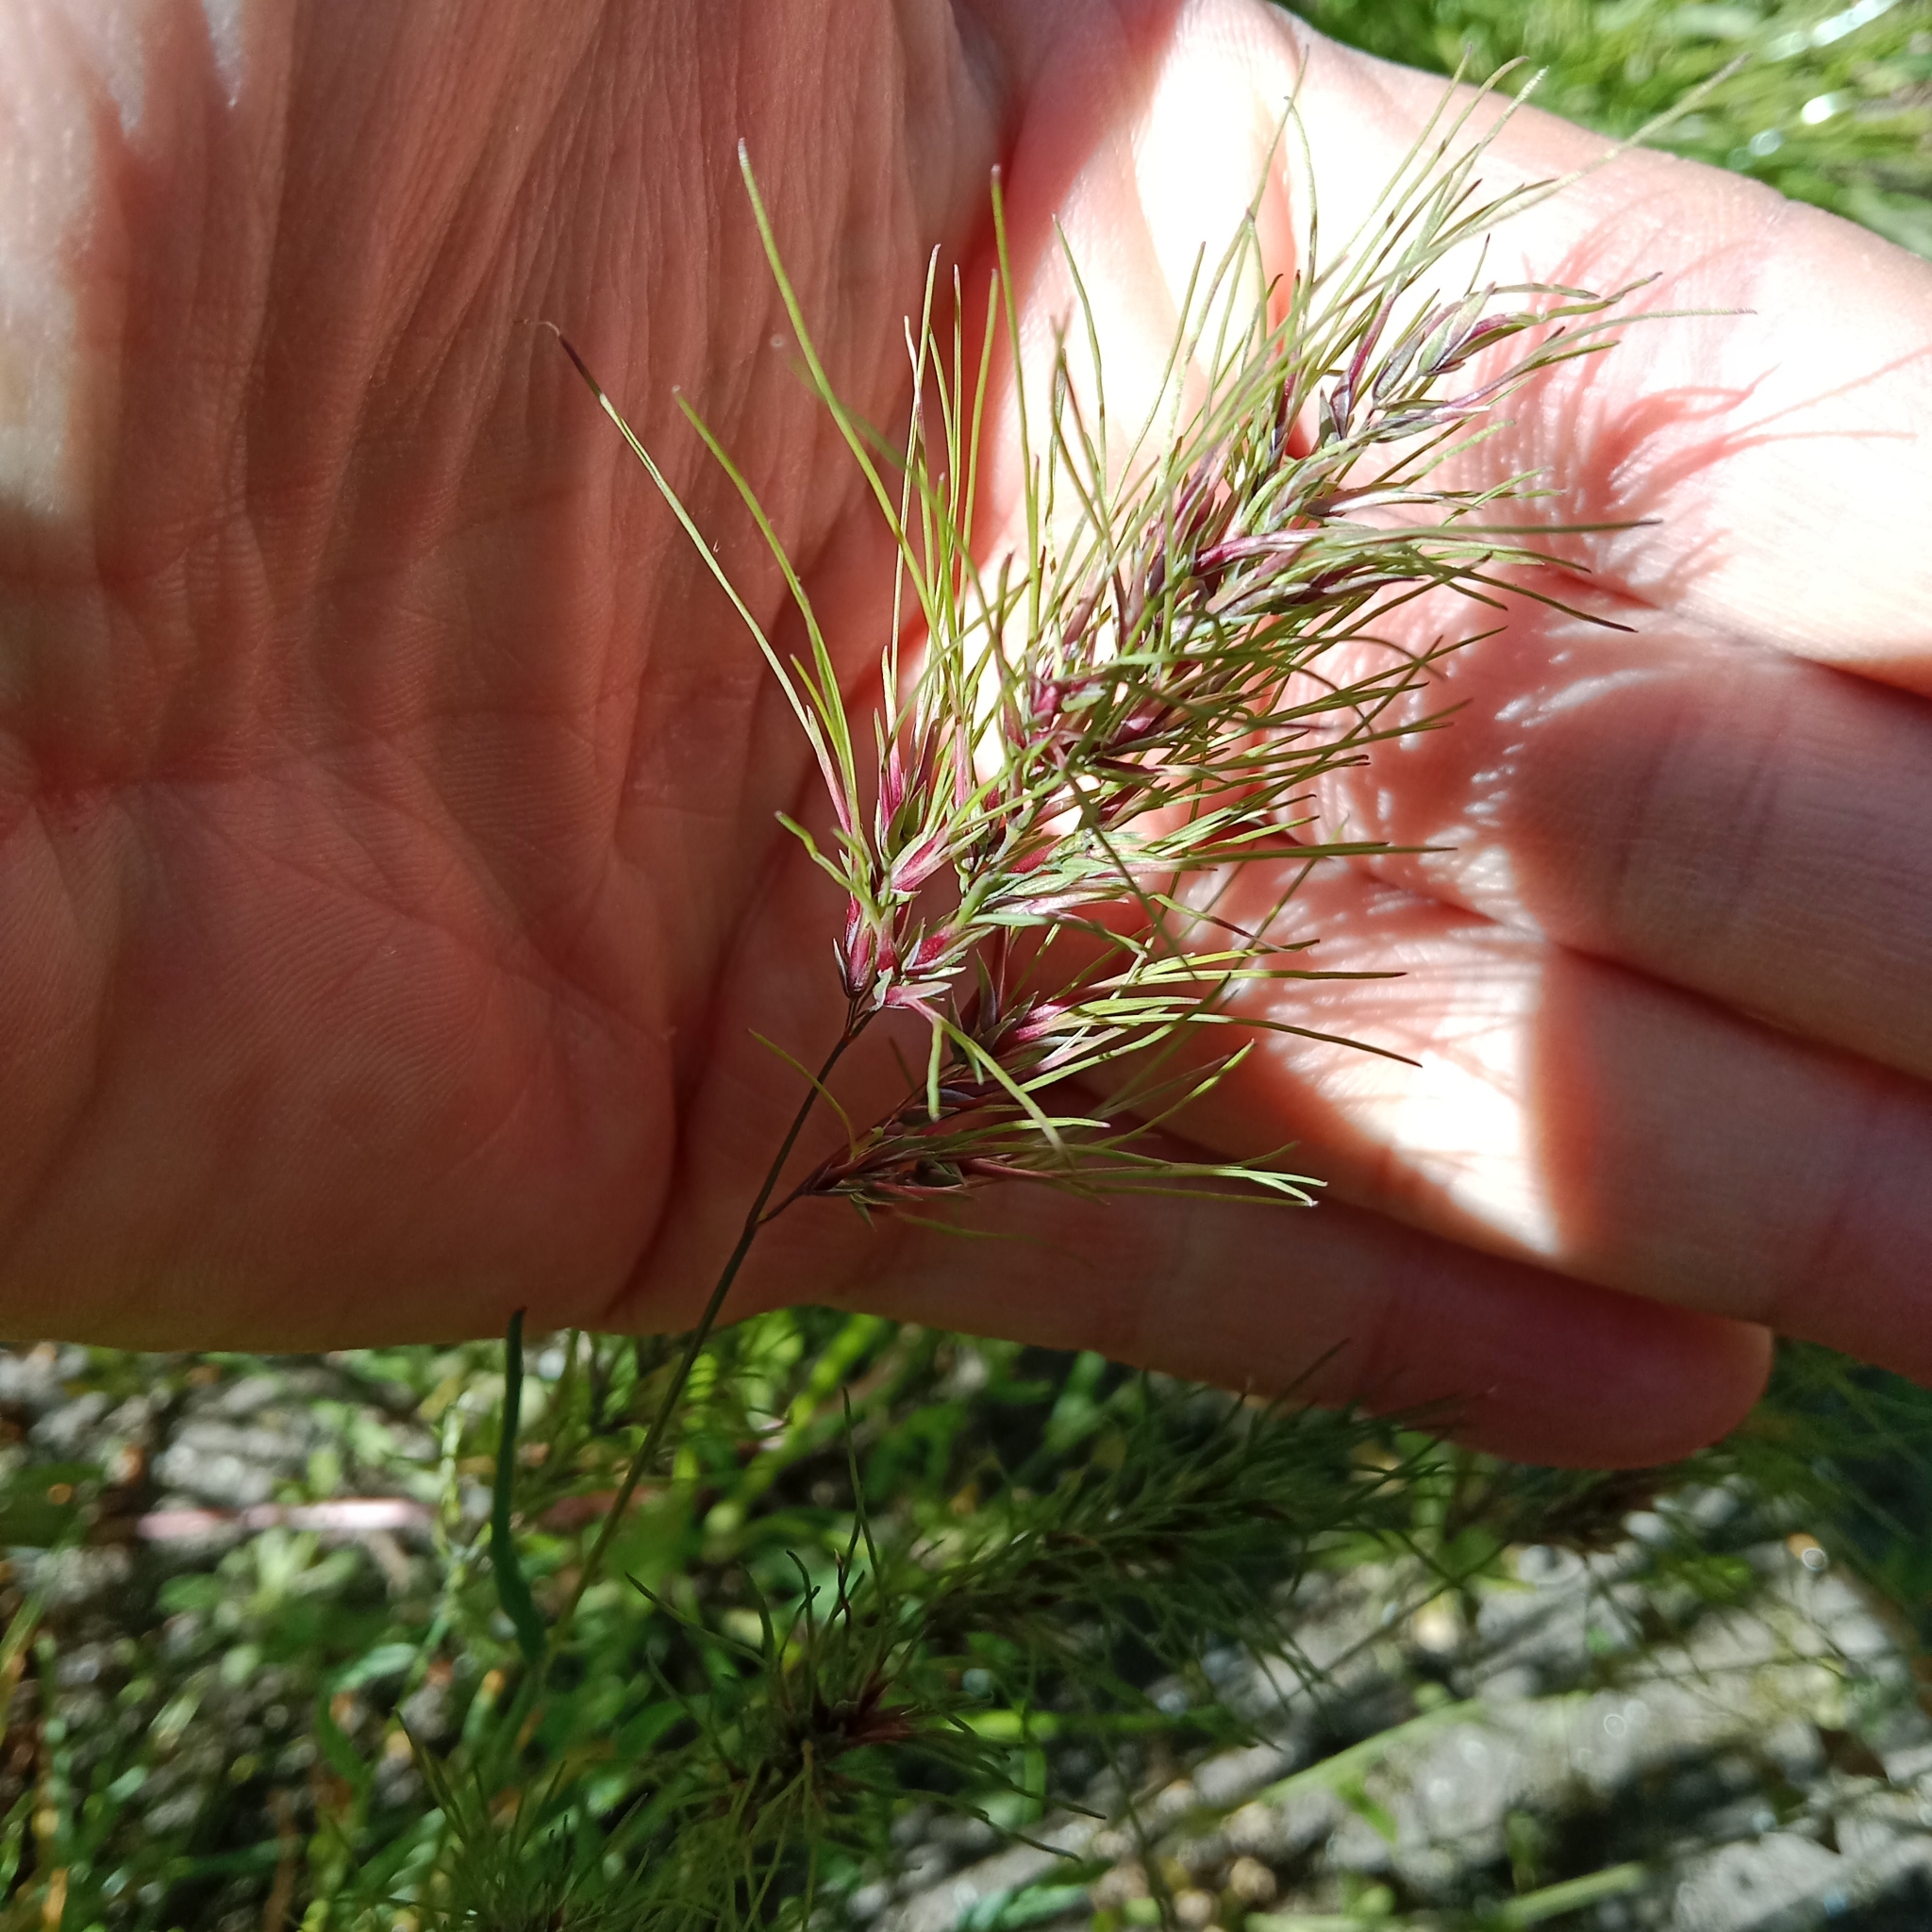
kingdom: Plantae
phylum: Tracheophyta
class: Liliopsida
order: Poales
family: Poaceae
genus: Poa
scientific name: Poa bulbosa
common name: Bulbous bluegrass
